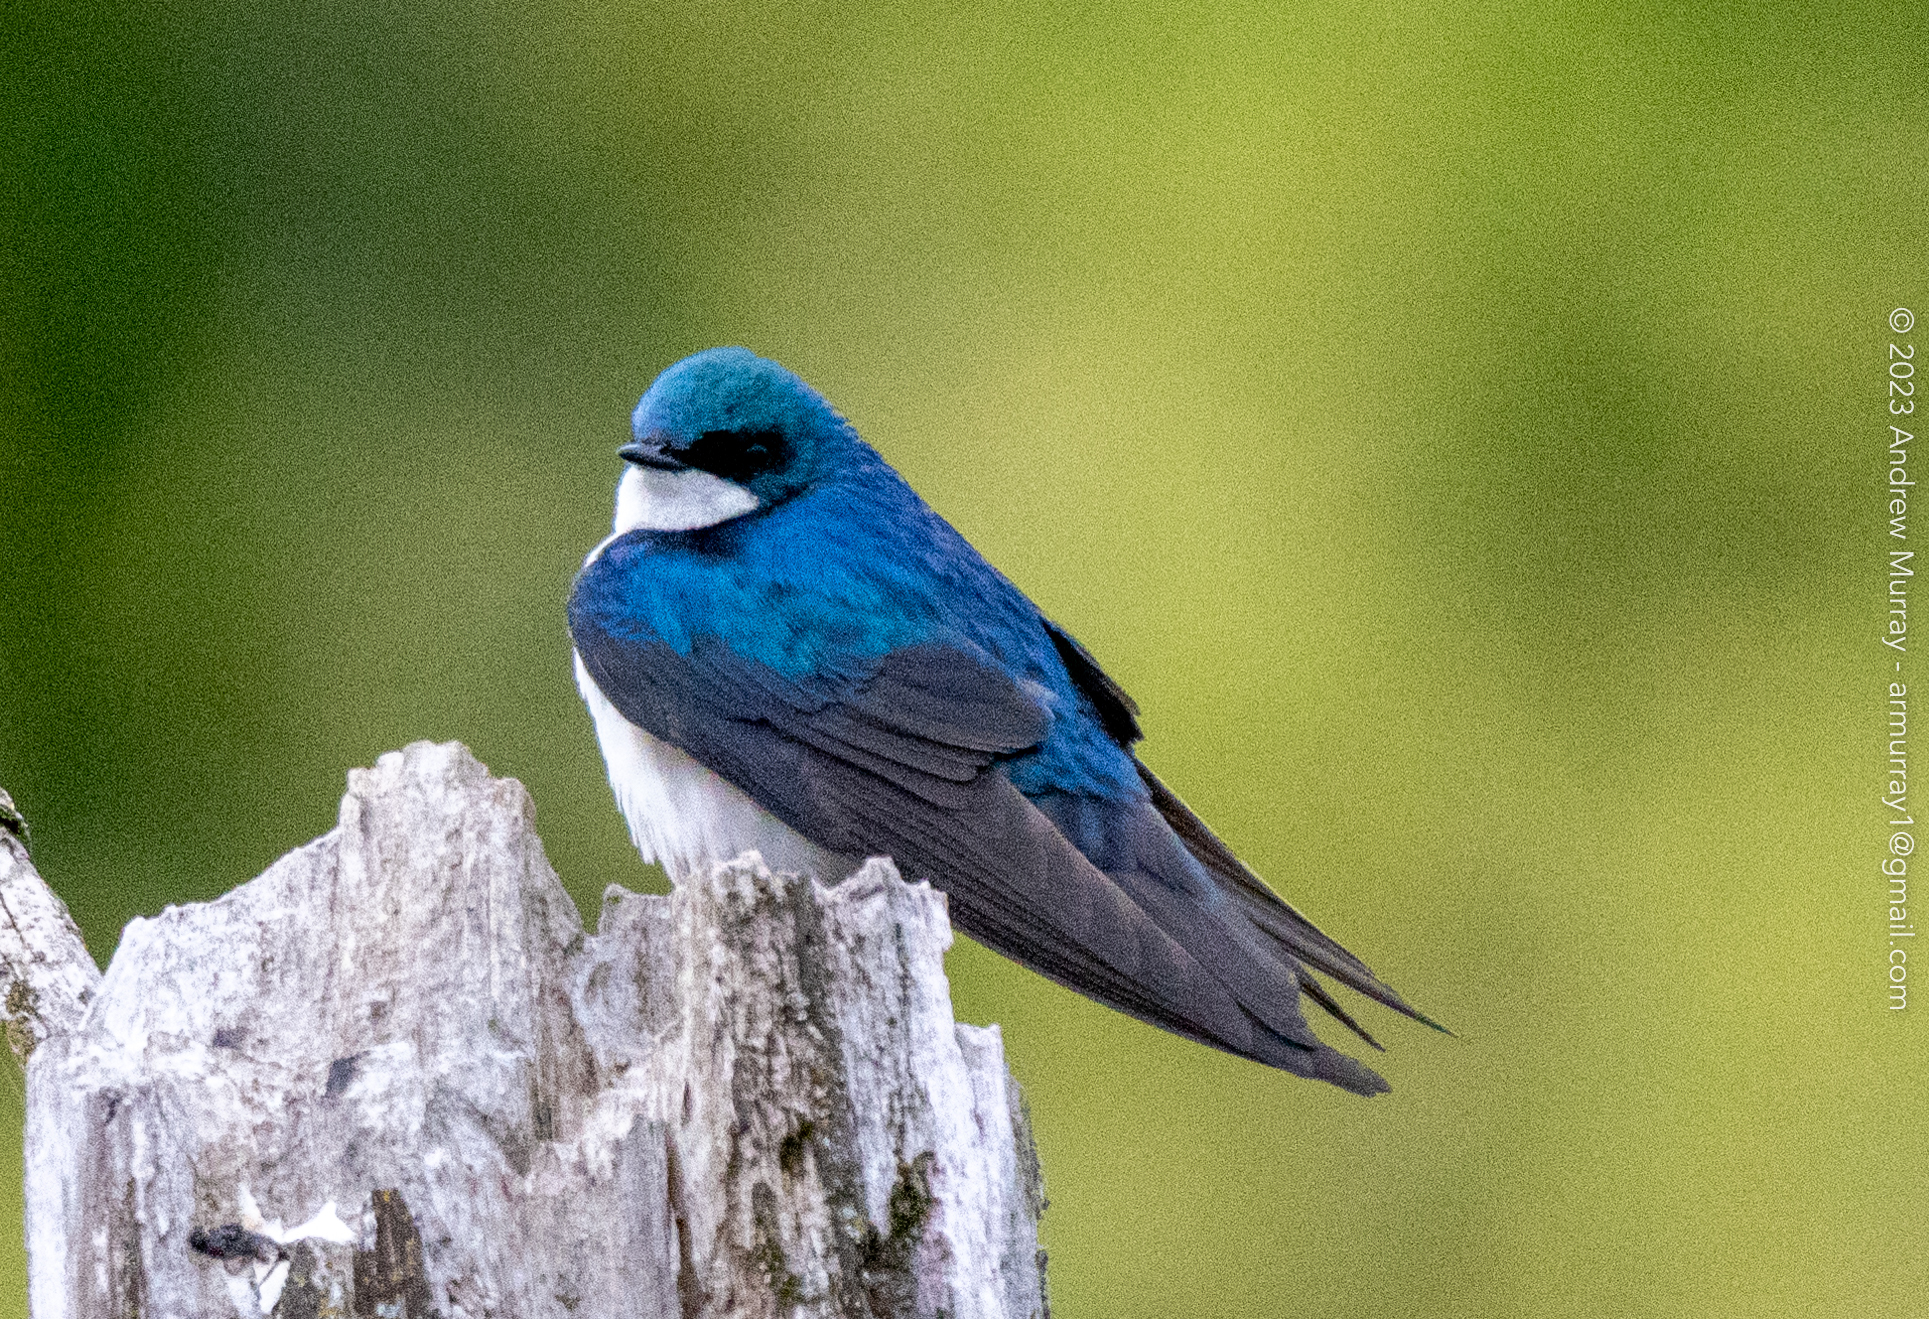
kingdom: Animalia
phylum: Chordata
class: Aves
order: Passeriformes
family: Hirundinidae
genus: Tachycineta
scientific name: Tachycineta bicolor
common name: Tree swallow
